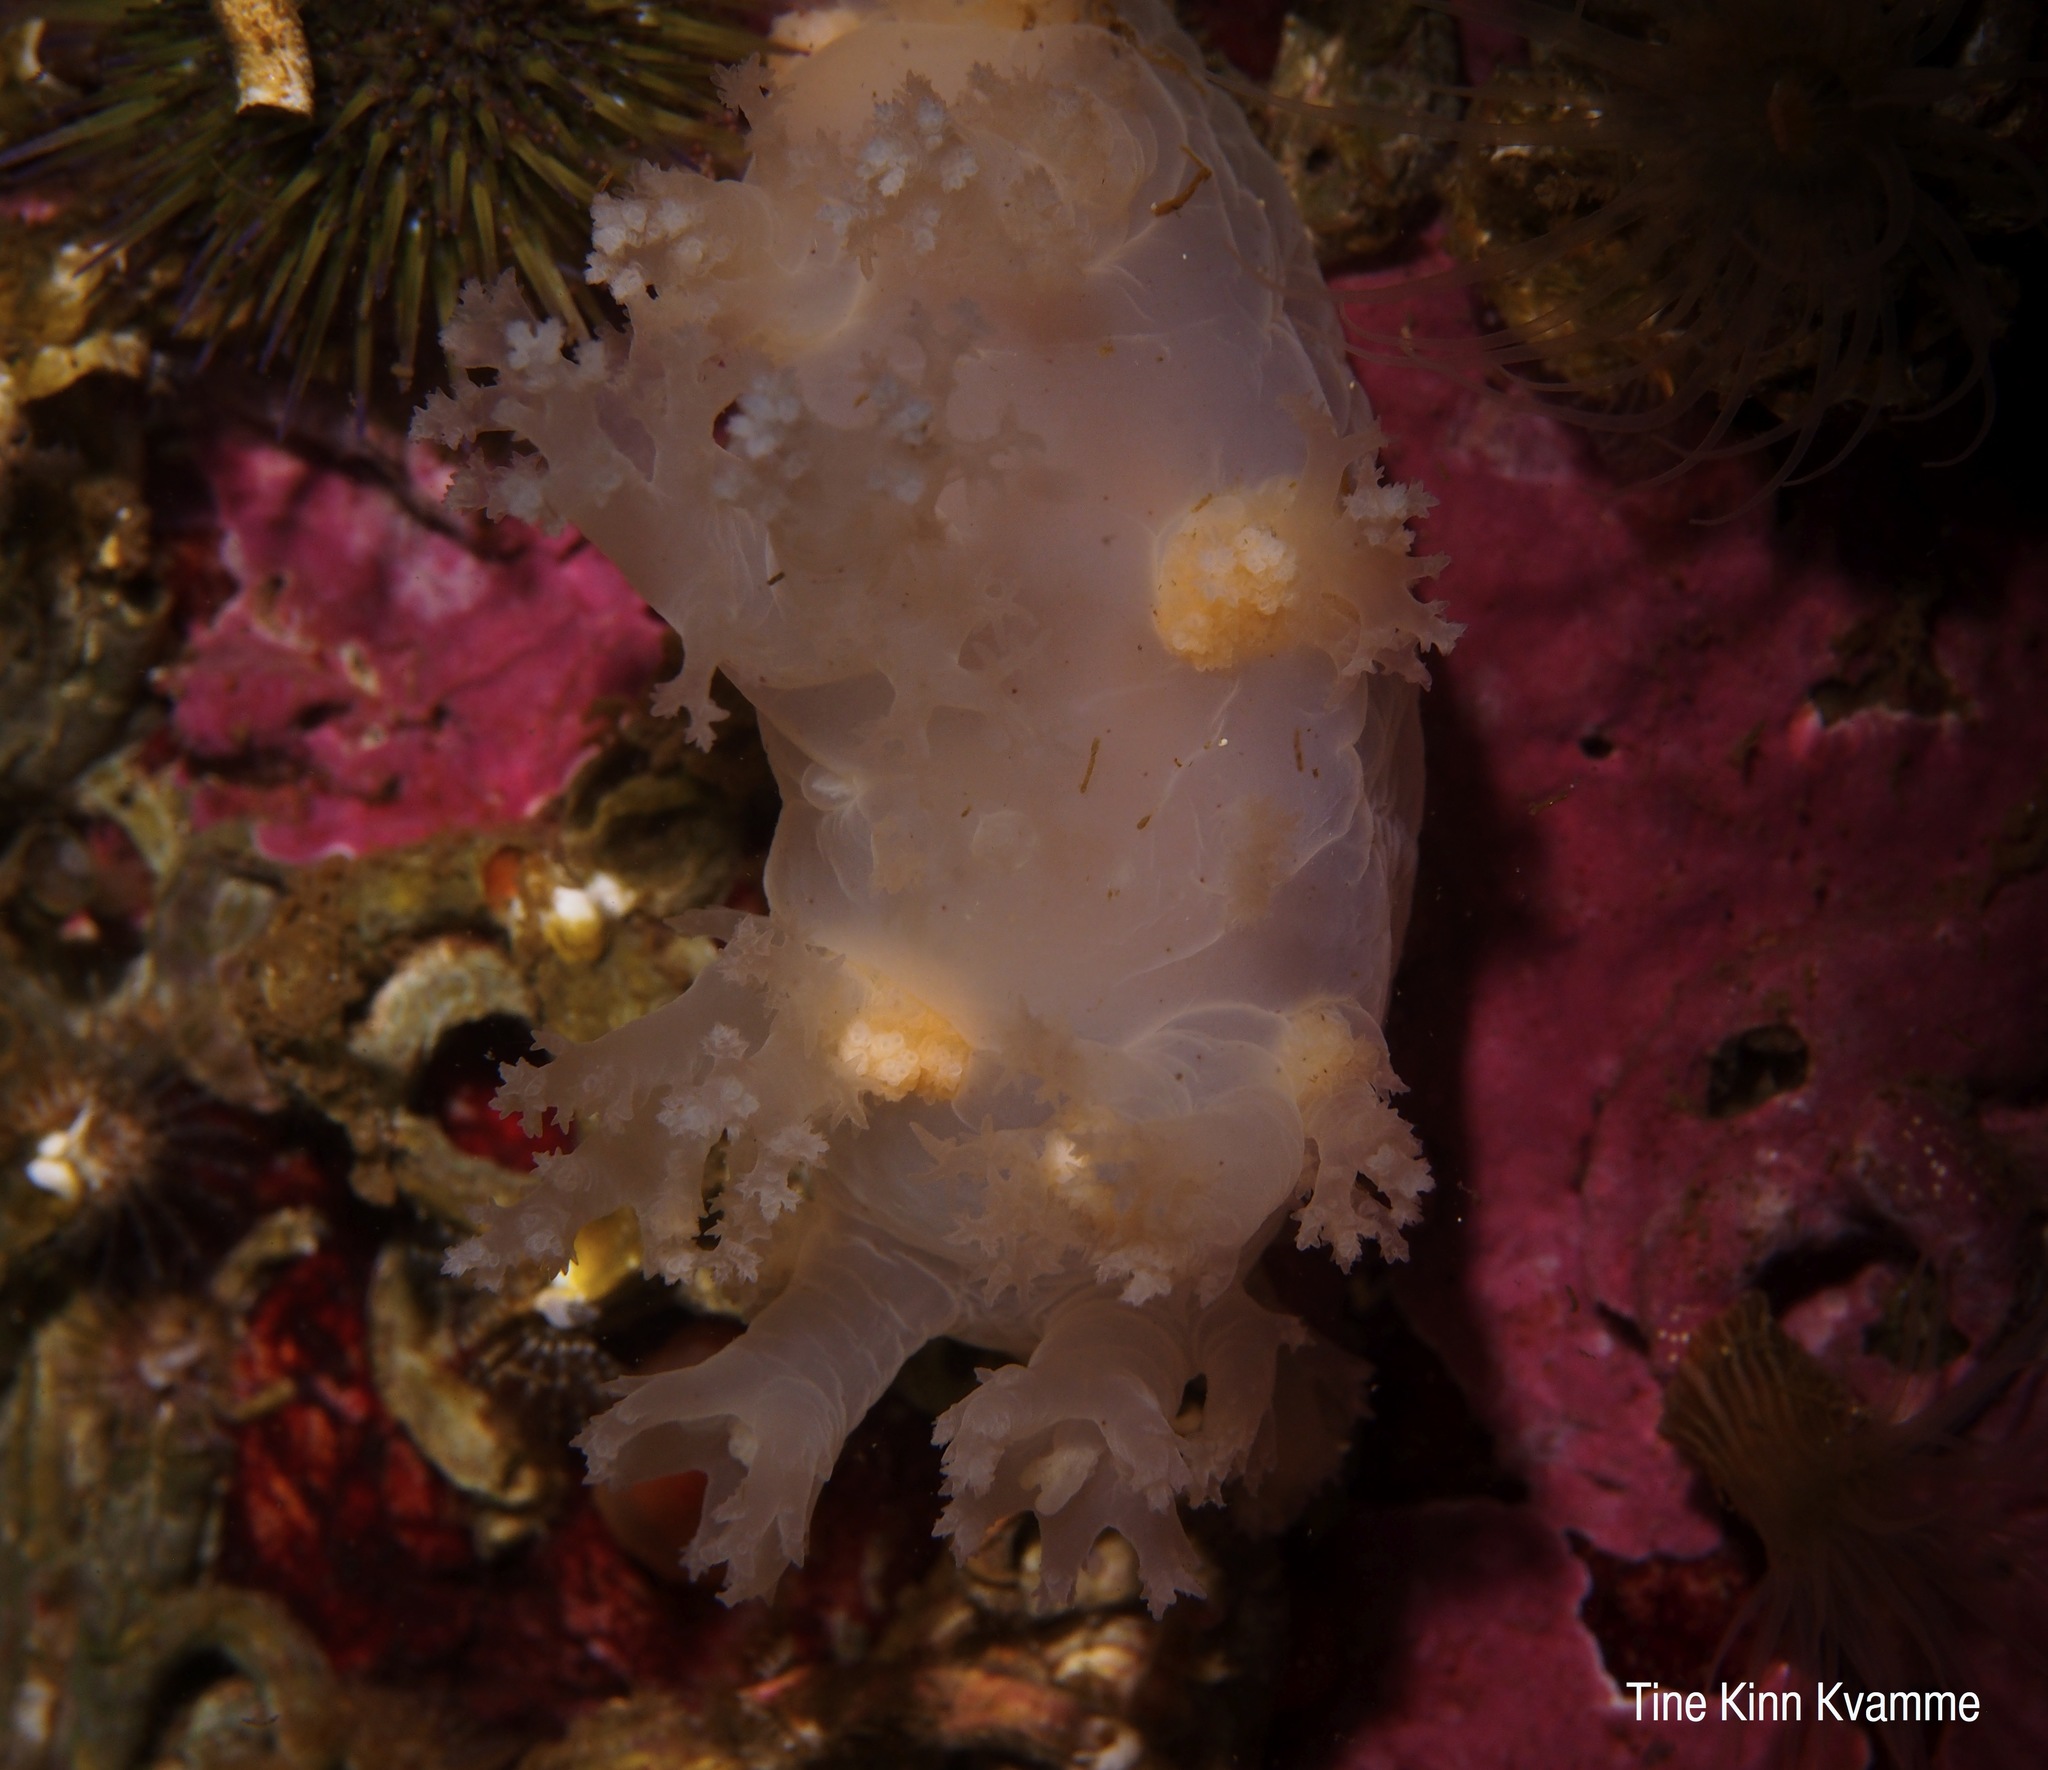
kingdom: Animalia
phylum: Mollusca
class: Gastropoda
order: Nudibranchia
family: Dendronotidae
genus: Dendronotus
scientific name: Dendronotus lacteus
